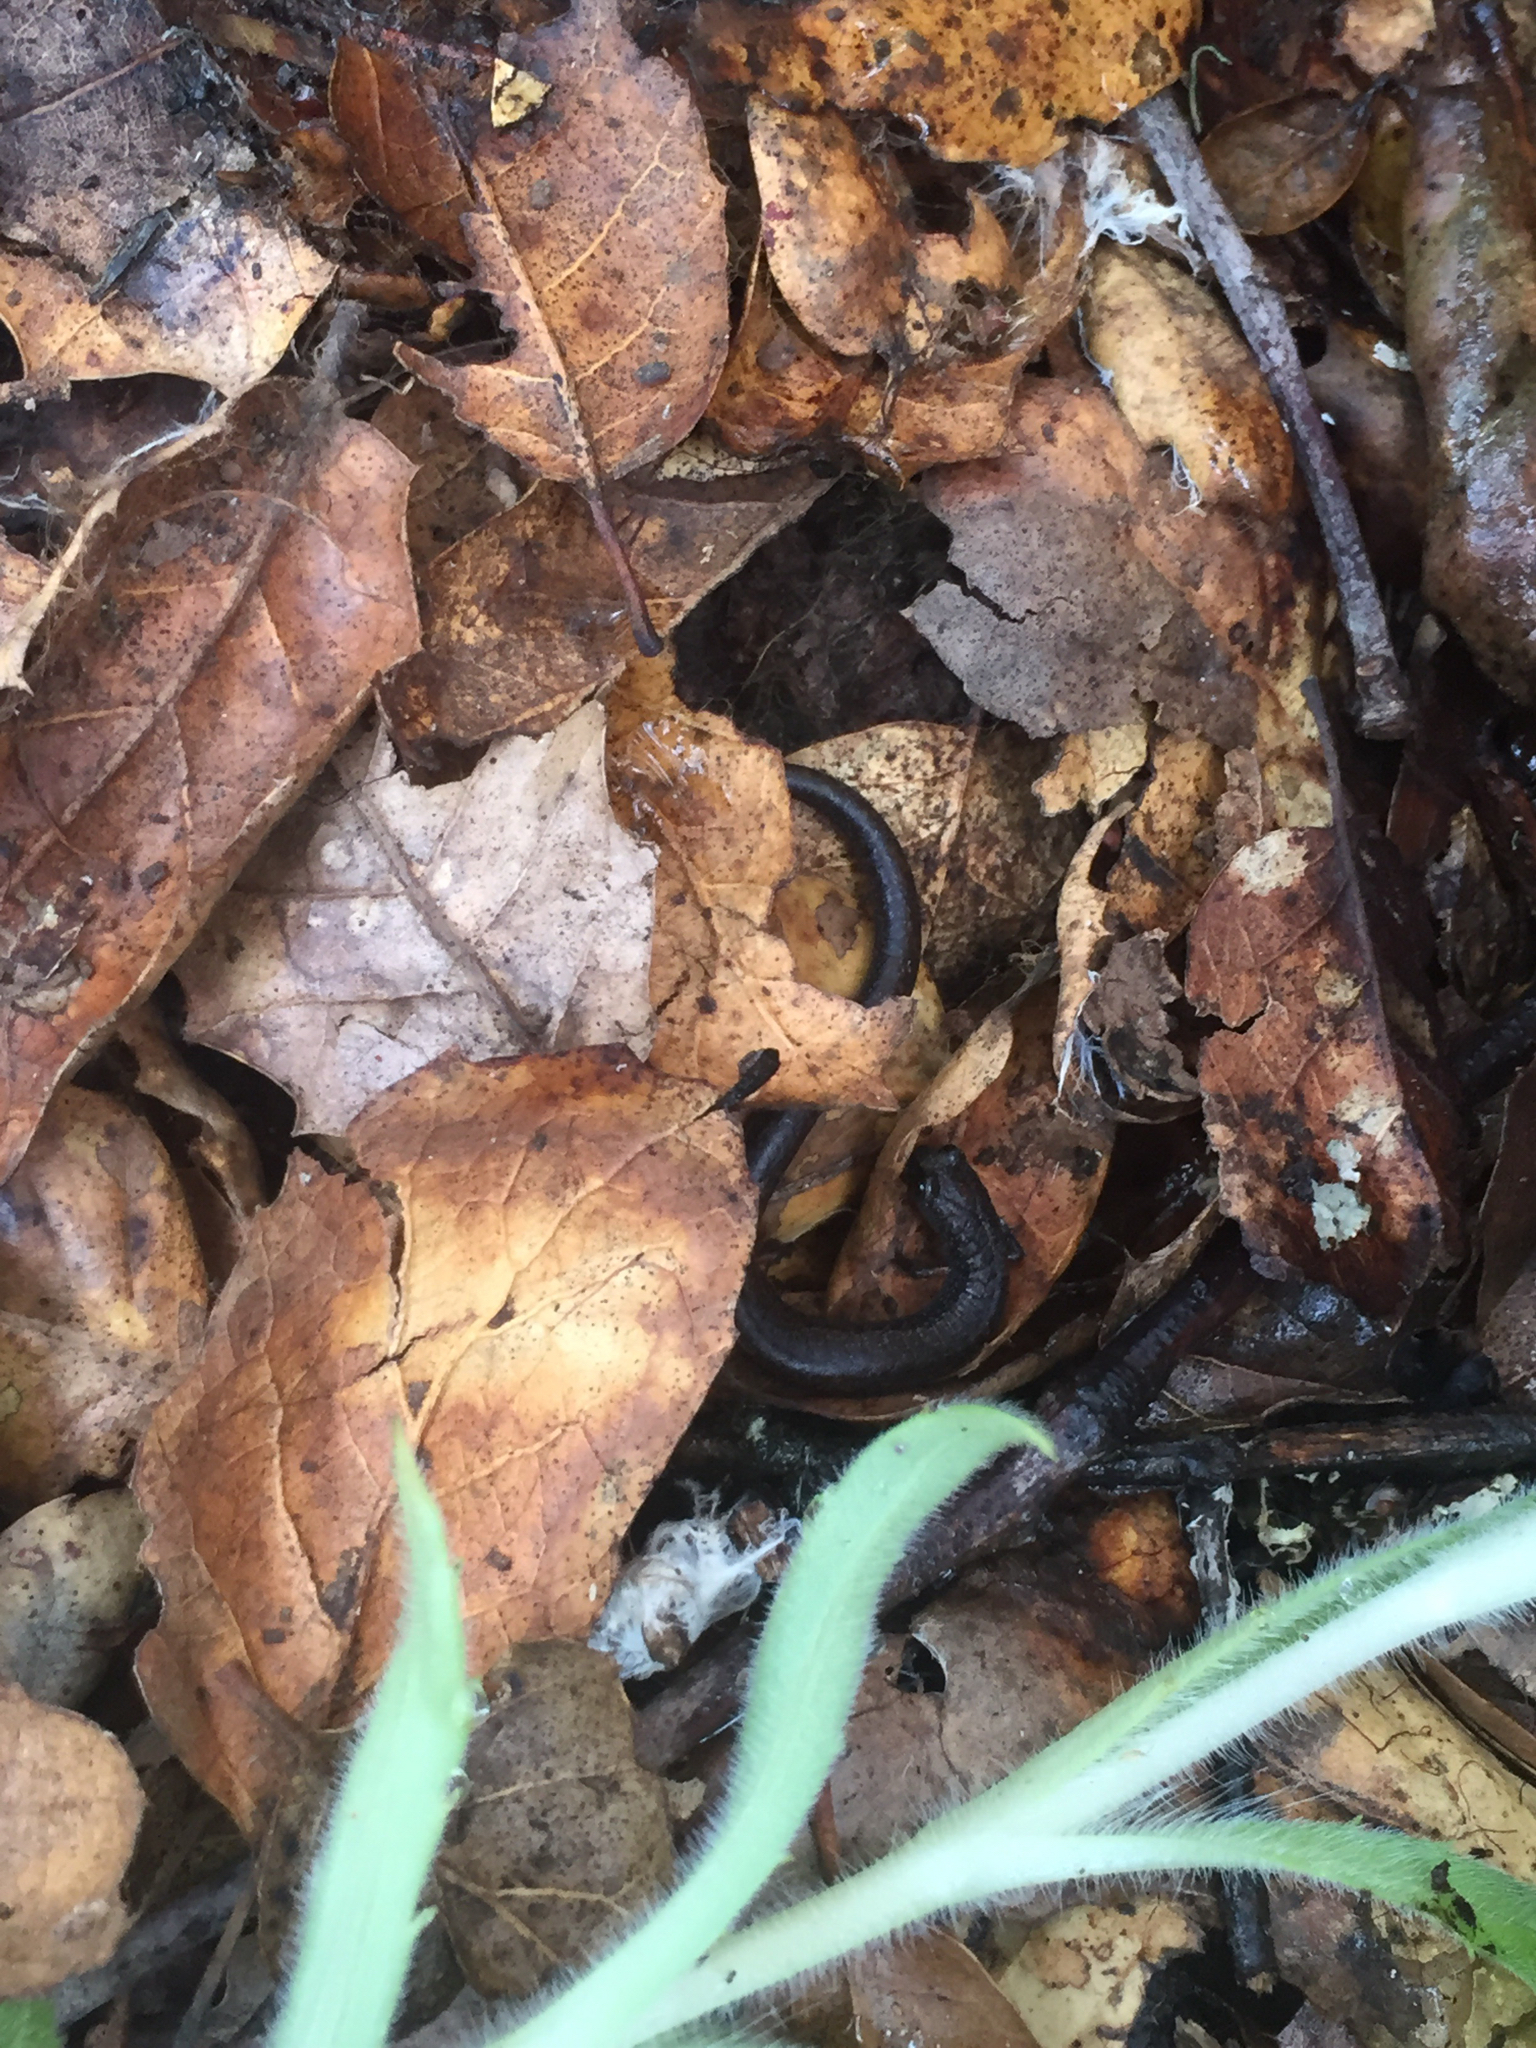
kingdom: Animalia
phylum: Chordata
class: Amphibia
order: Caudata
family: Plethodontidae
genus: Batrachoseps
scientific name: Batrachoseps attenuatus
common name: California slender salamander
